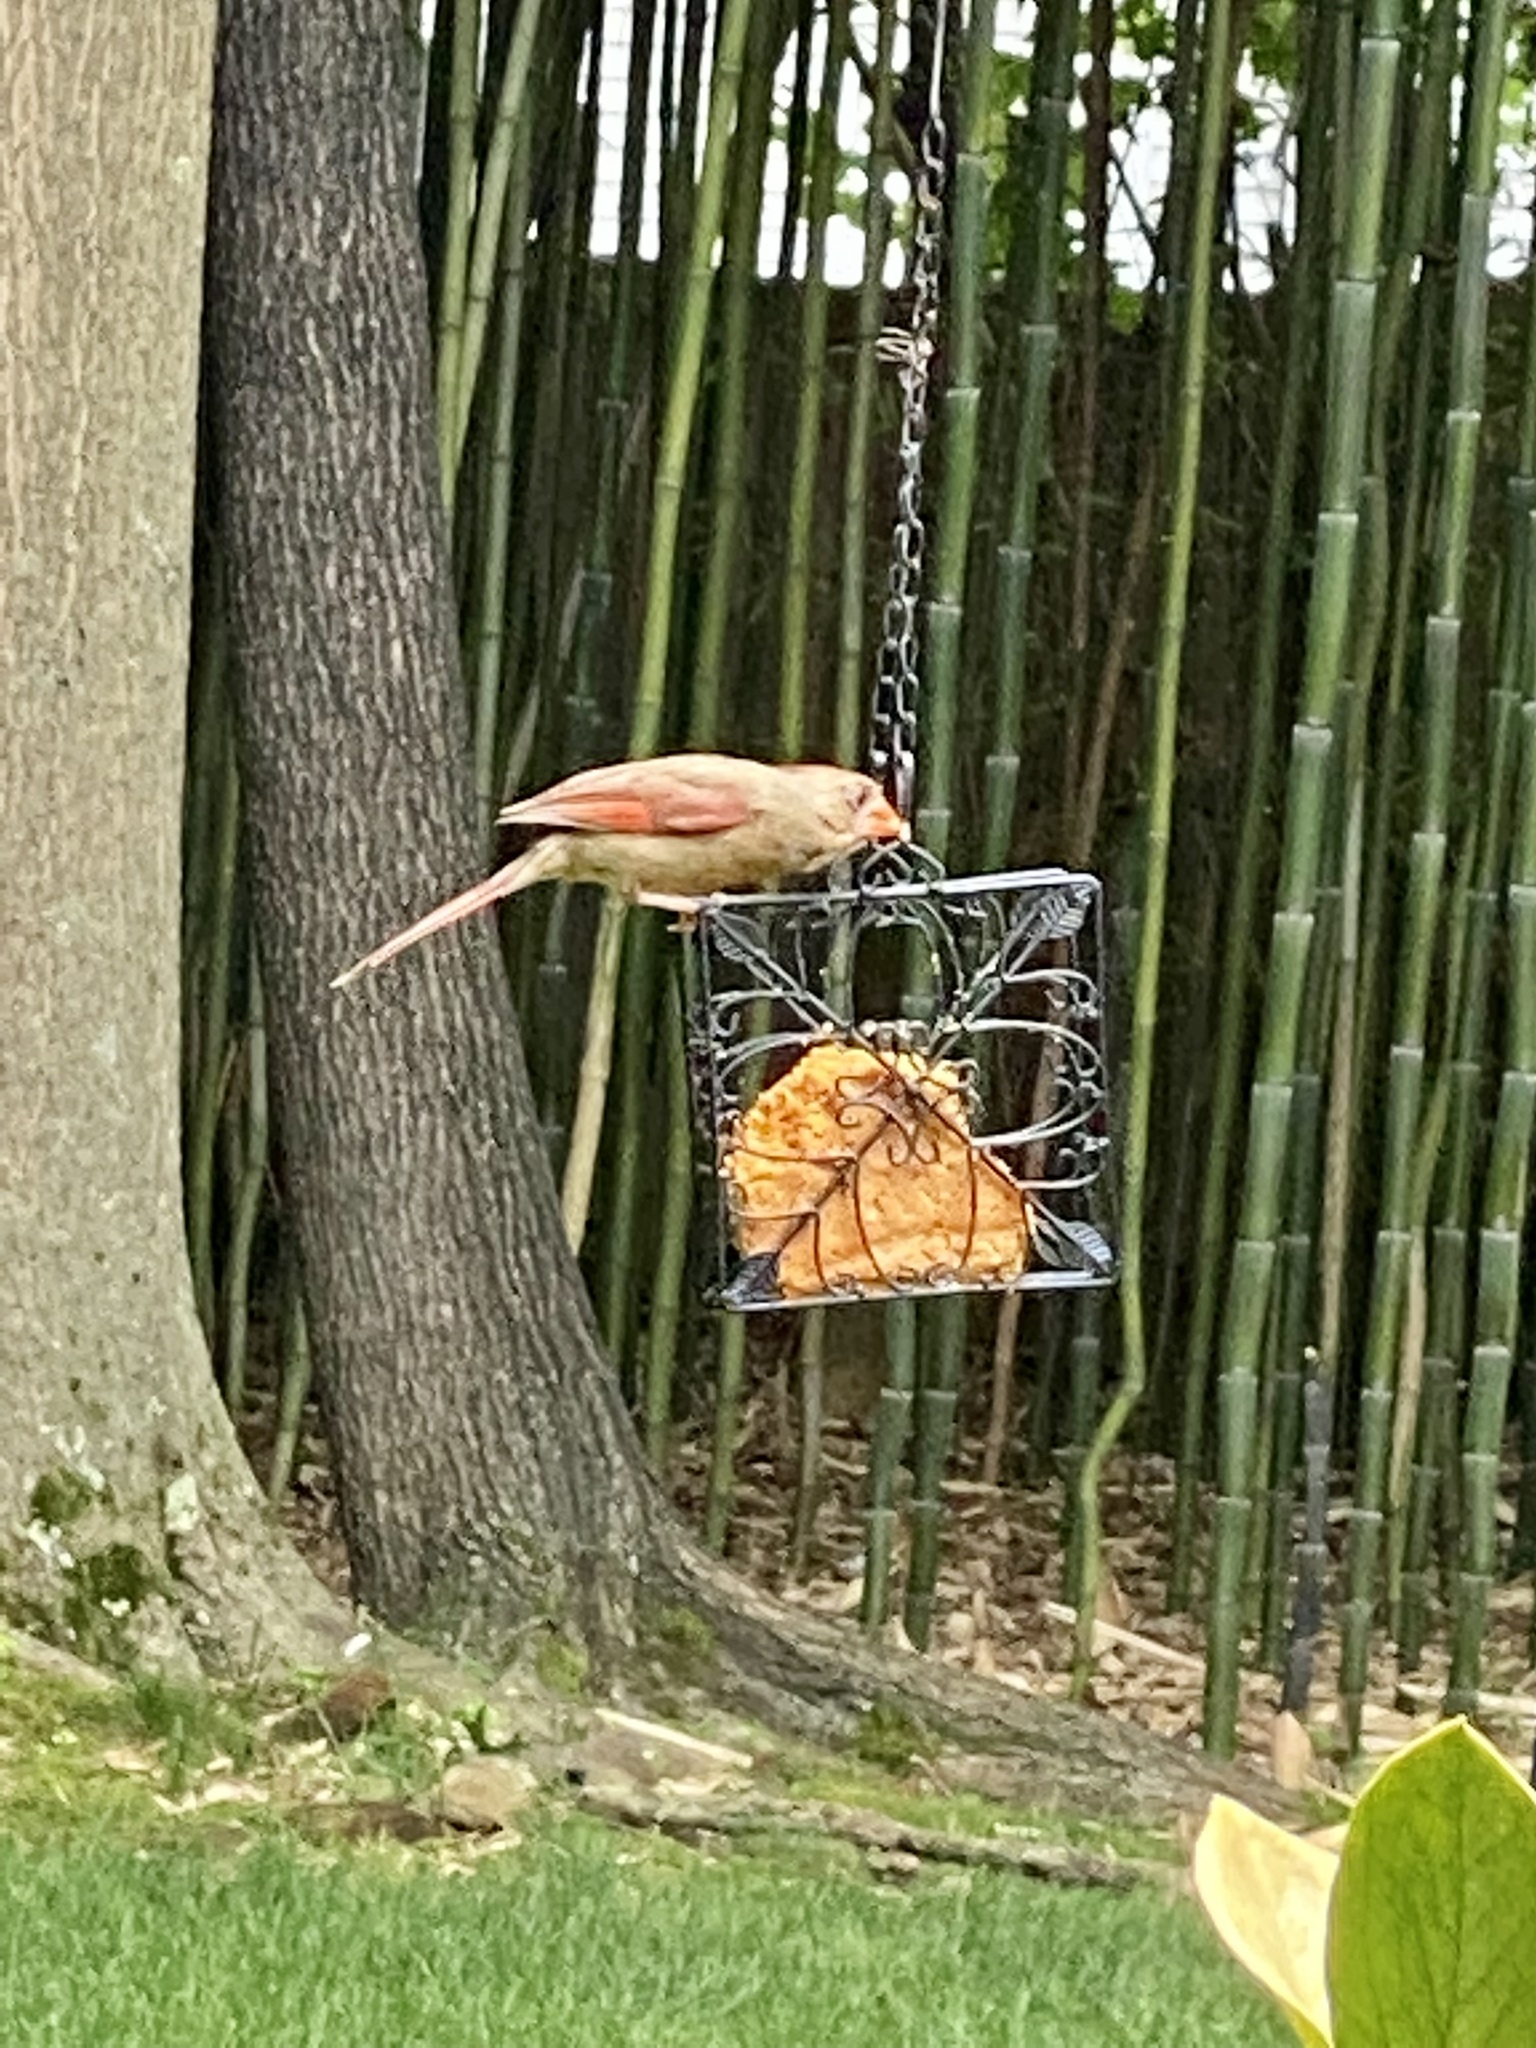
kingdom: Animalia
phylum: Chordata
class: Aves
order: Passeriformes
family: Cardinalidae
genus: Cardinalis
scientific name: Cardinalis cardinalis
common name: Northern cardinal
